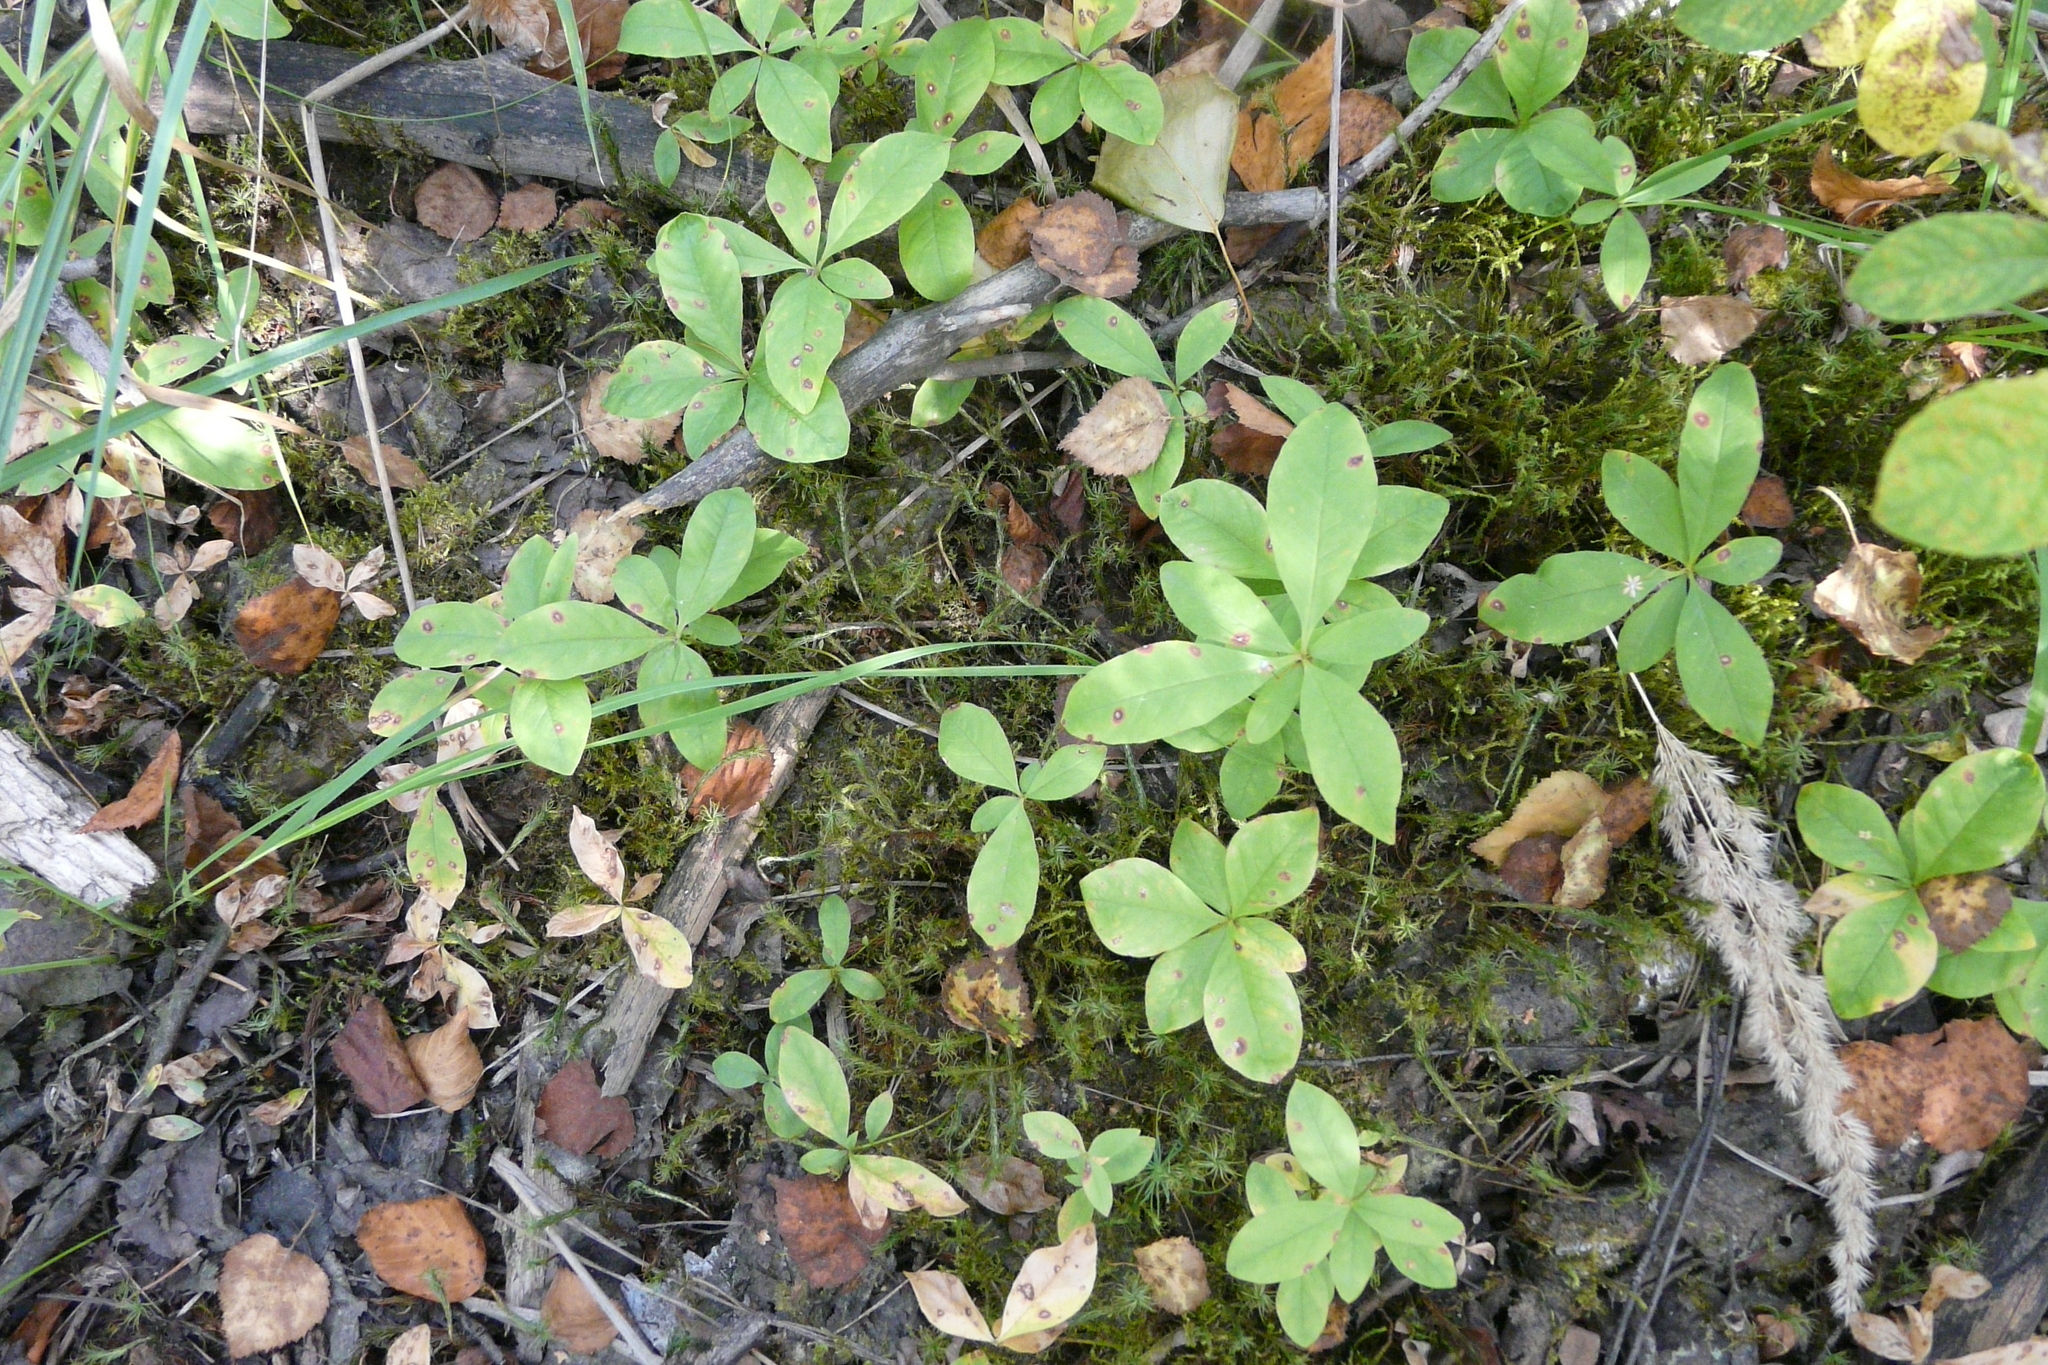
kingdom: Plantae
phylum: Tracheophyta
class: Magnoliopsida
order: Ericales
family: Primulaceae
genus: Lysimachia
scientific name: Lysimachia europaea
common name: Arctic starflower
